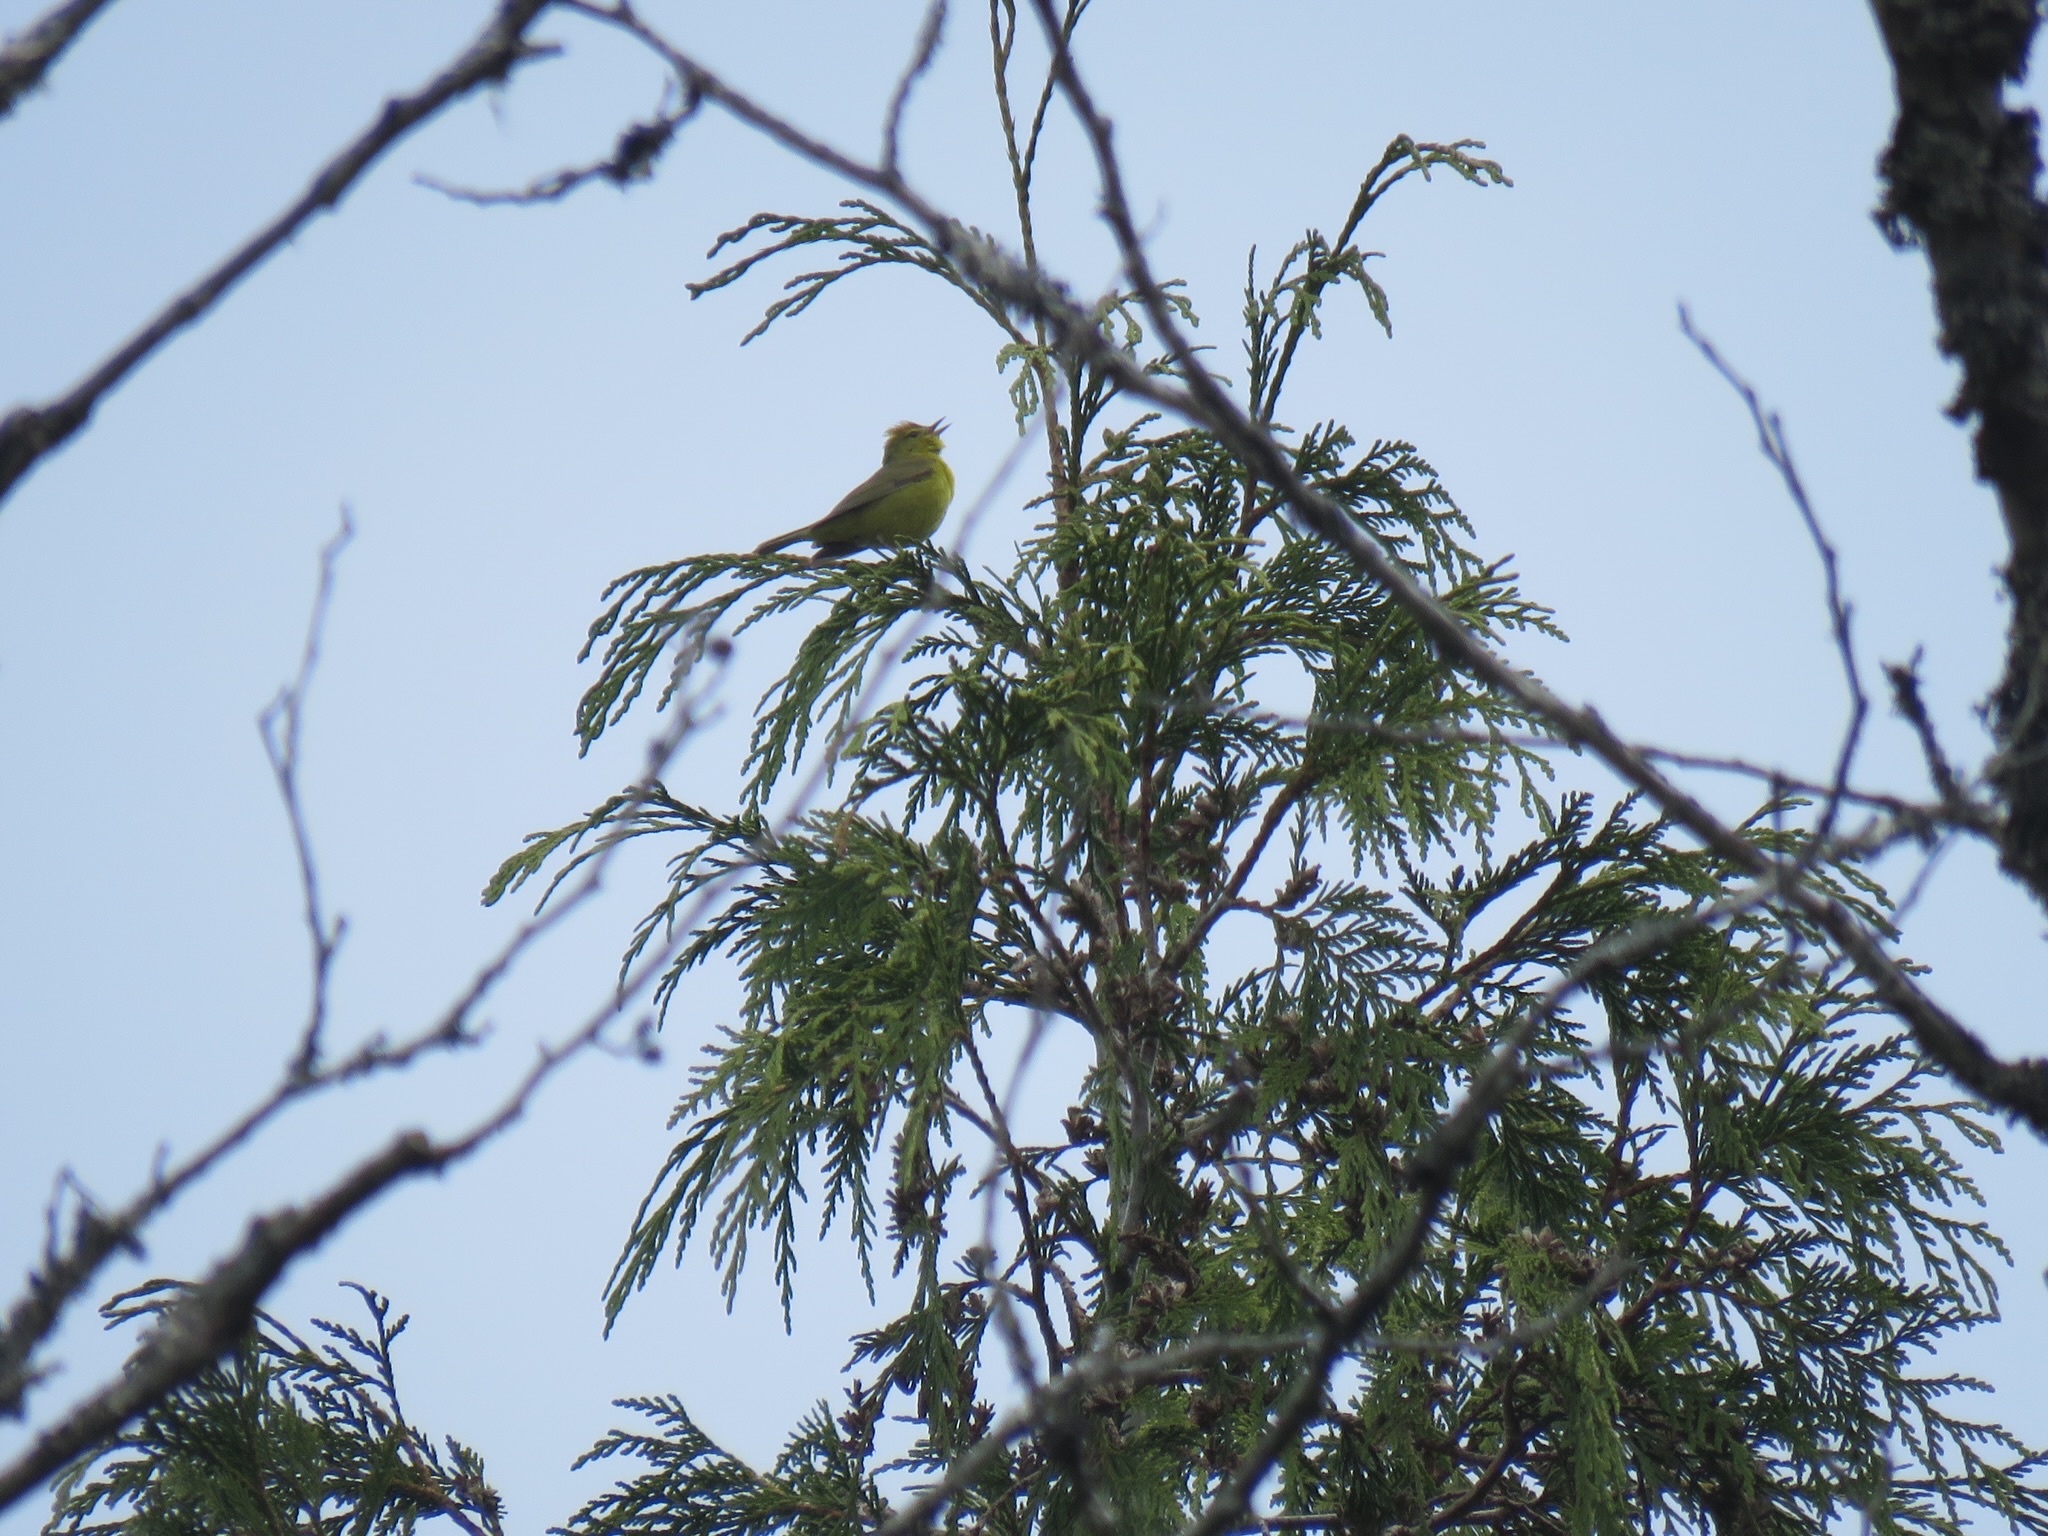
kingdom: Animalia
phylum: Chordata
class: Aves
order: Passeriformes
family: Parulidae
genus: Leiothlypis
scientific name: Leiothlypis celata
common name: Orange-crowned warbler
